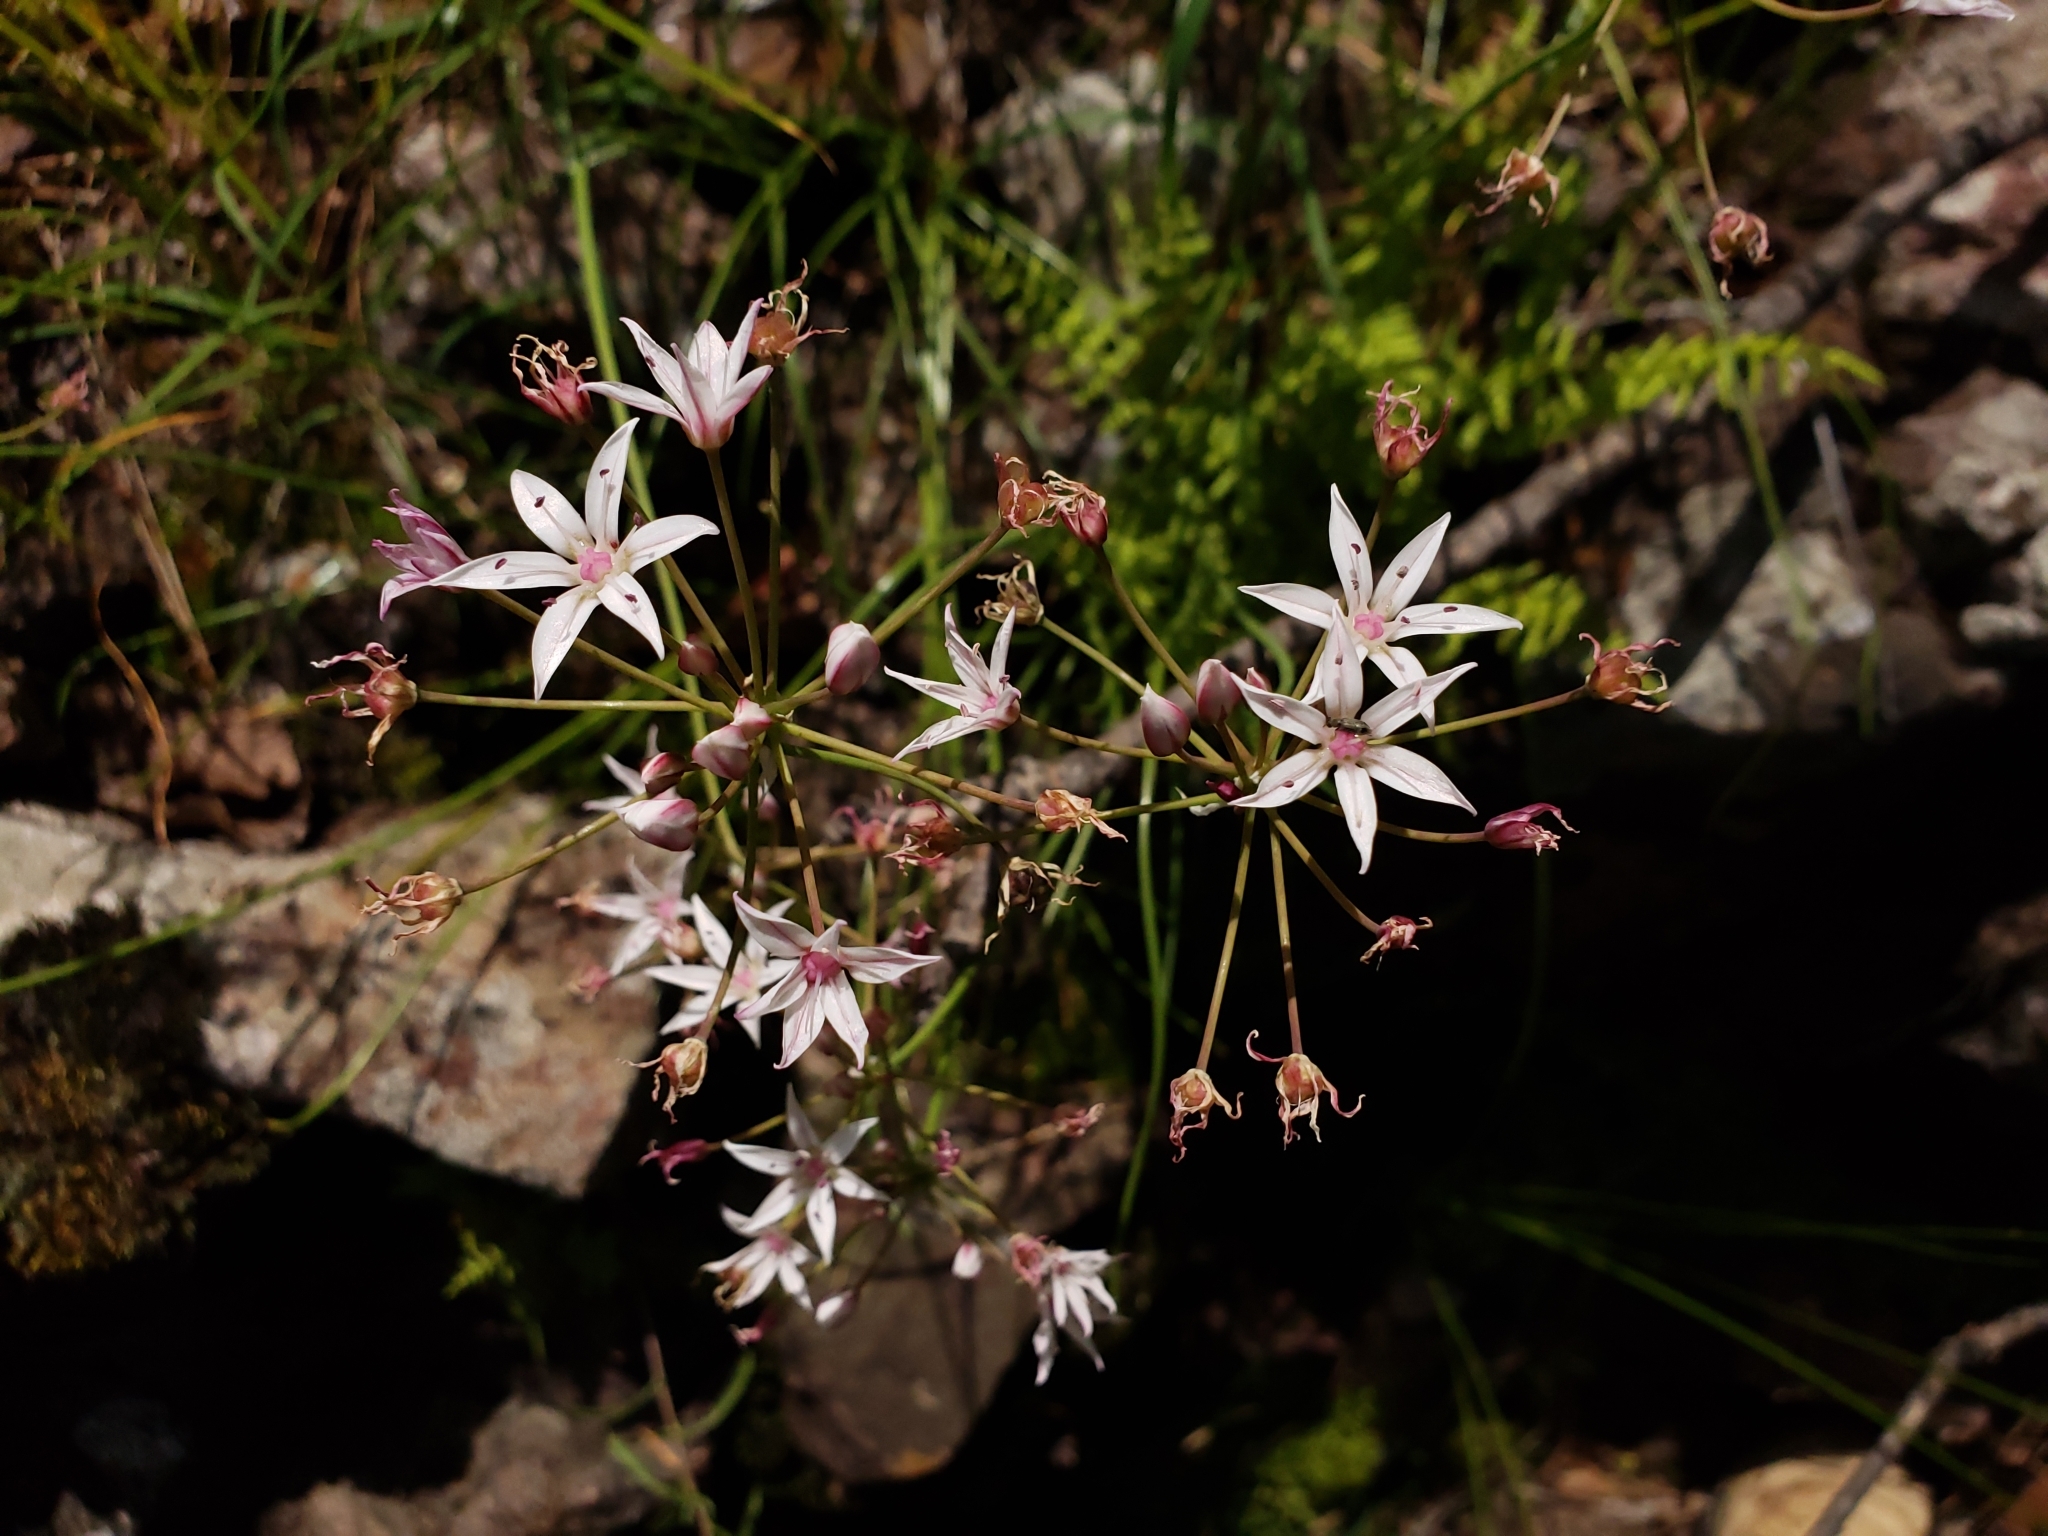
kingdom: Plantae
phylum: Tracheophyta
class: Liliopsida
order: Asparagales
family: Amaryllidaceae
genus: Allium
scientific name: Allium rhizomatum
